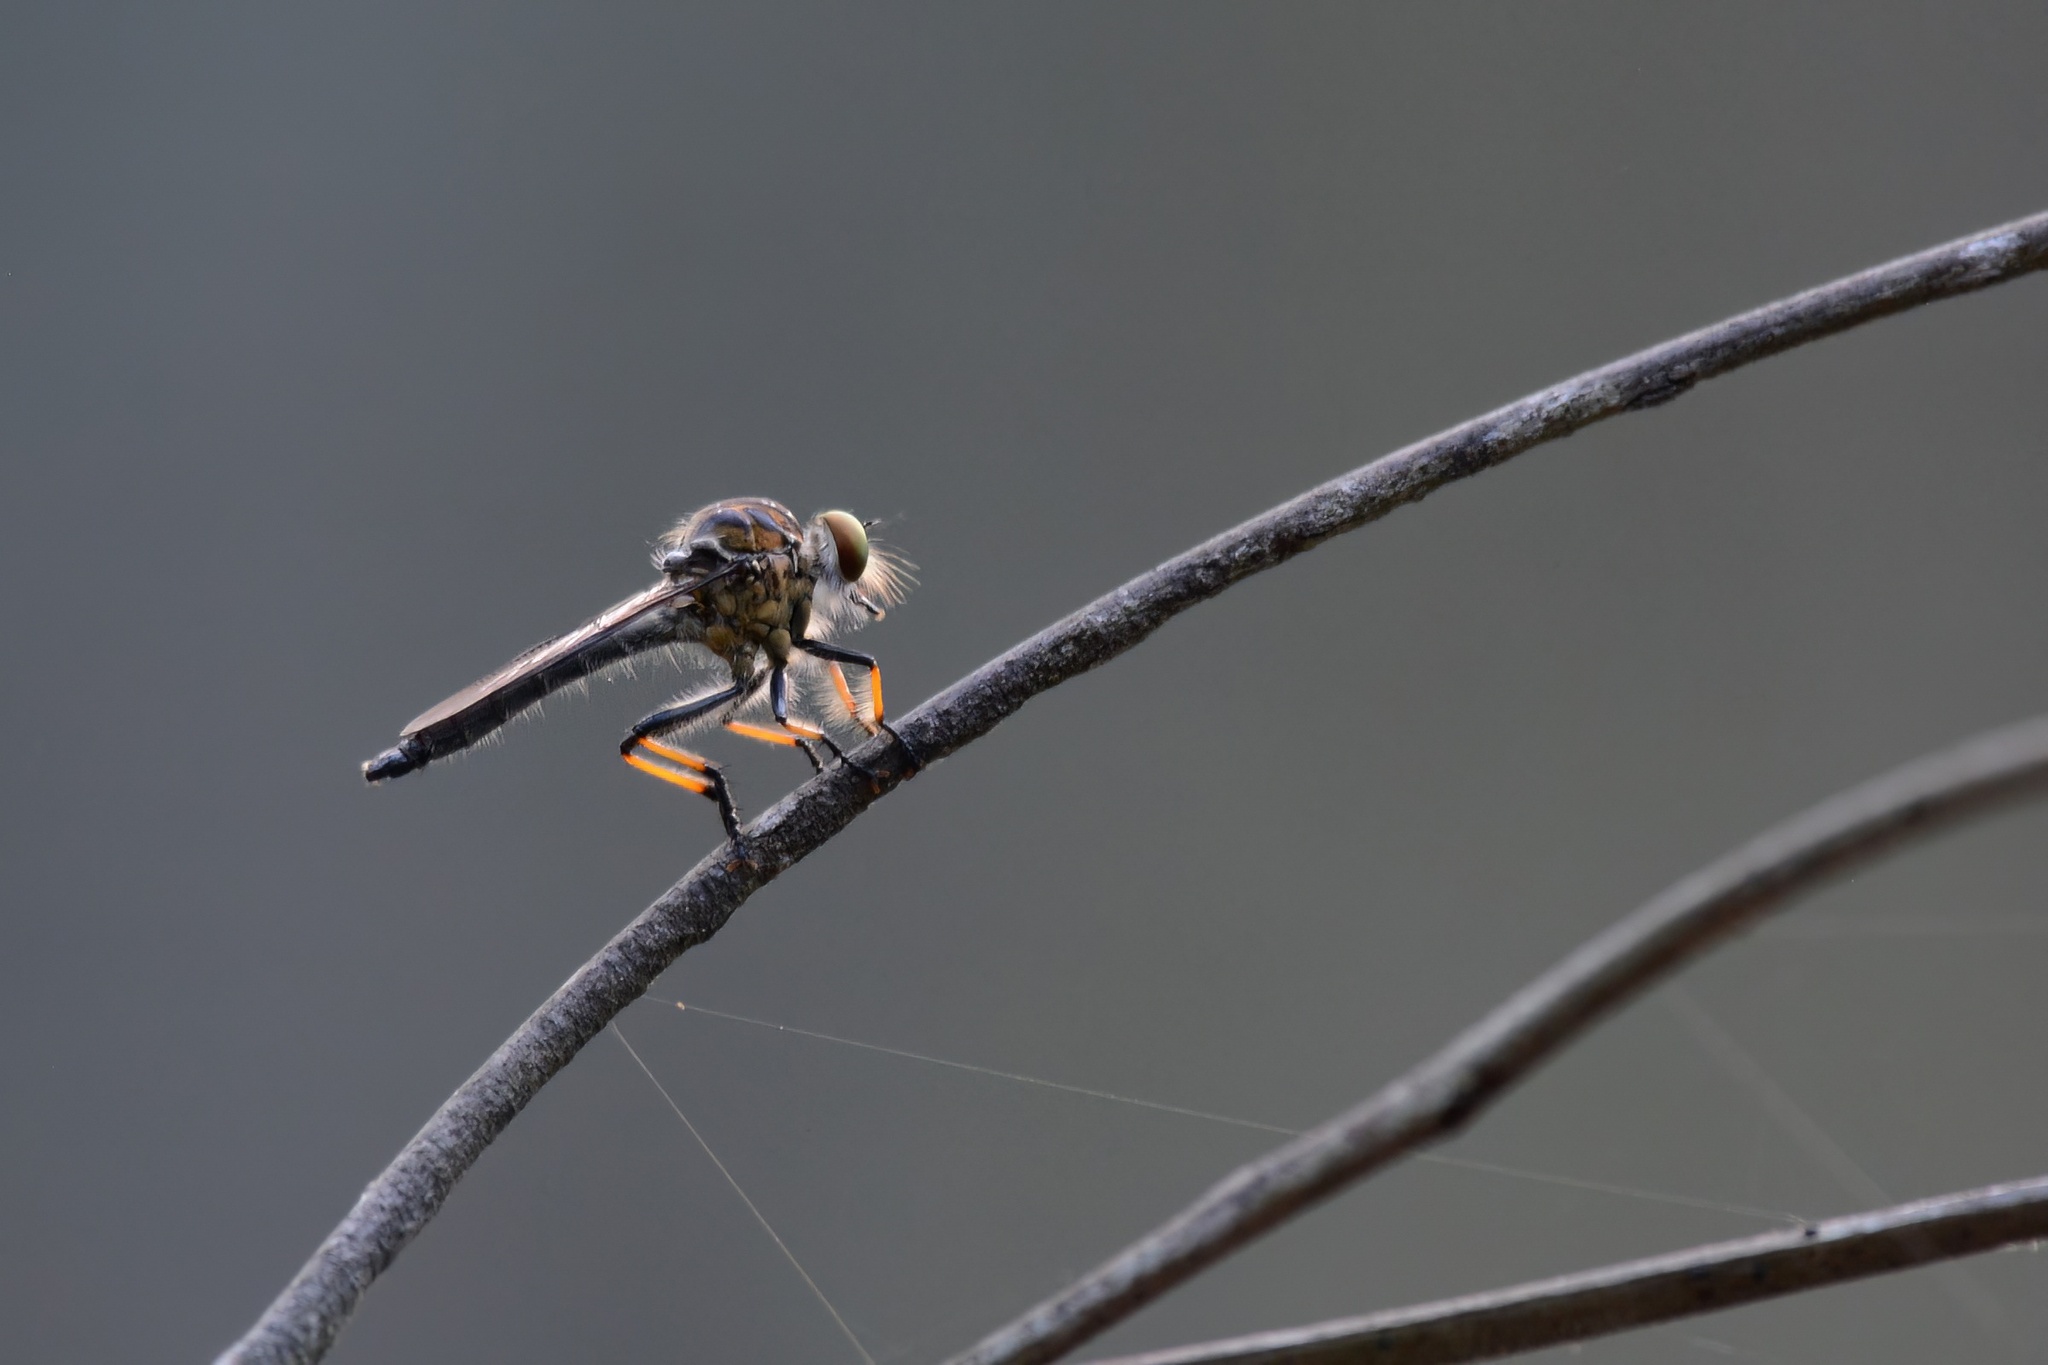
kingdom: Animalia
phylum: Arthropoda
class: Insecta
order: Diptera
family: Asilidae
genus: Ommatius
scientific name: Ommatius coeraebus
